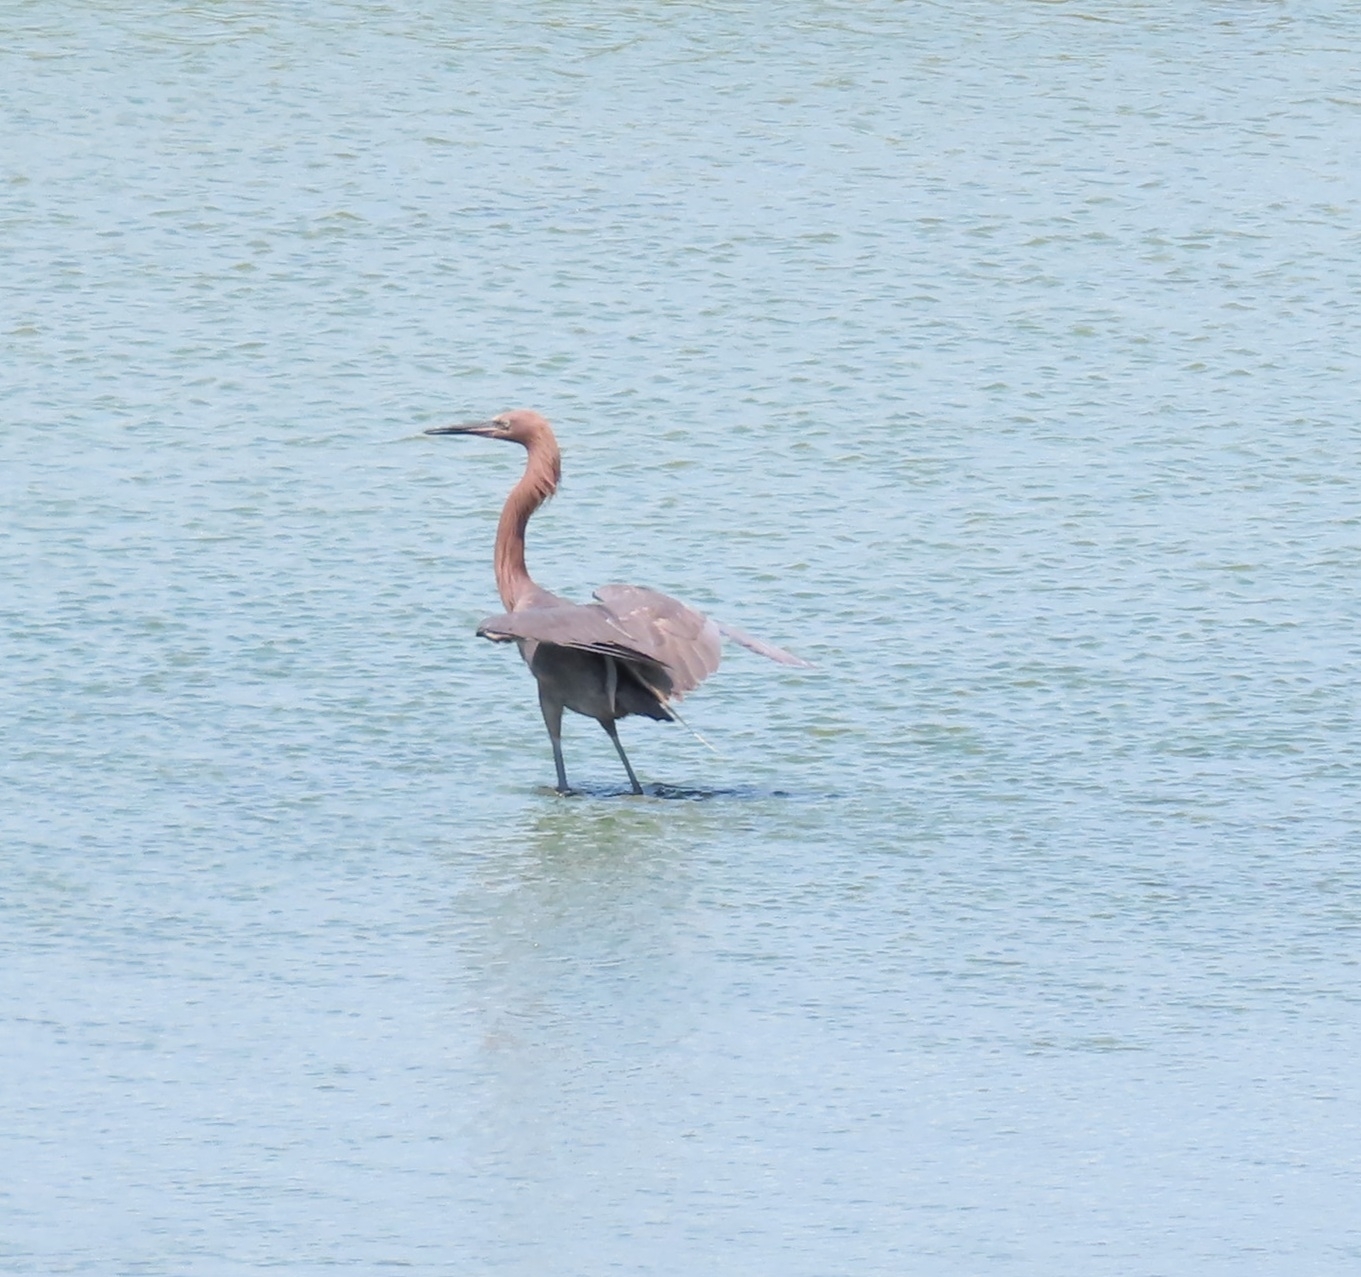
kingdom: Animalia
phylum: Chordata
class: Aves
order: Pelecaniformes
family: Ardeidae
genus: Egretta
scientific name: Egretta rufescens
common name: Reddish egret
